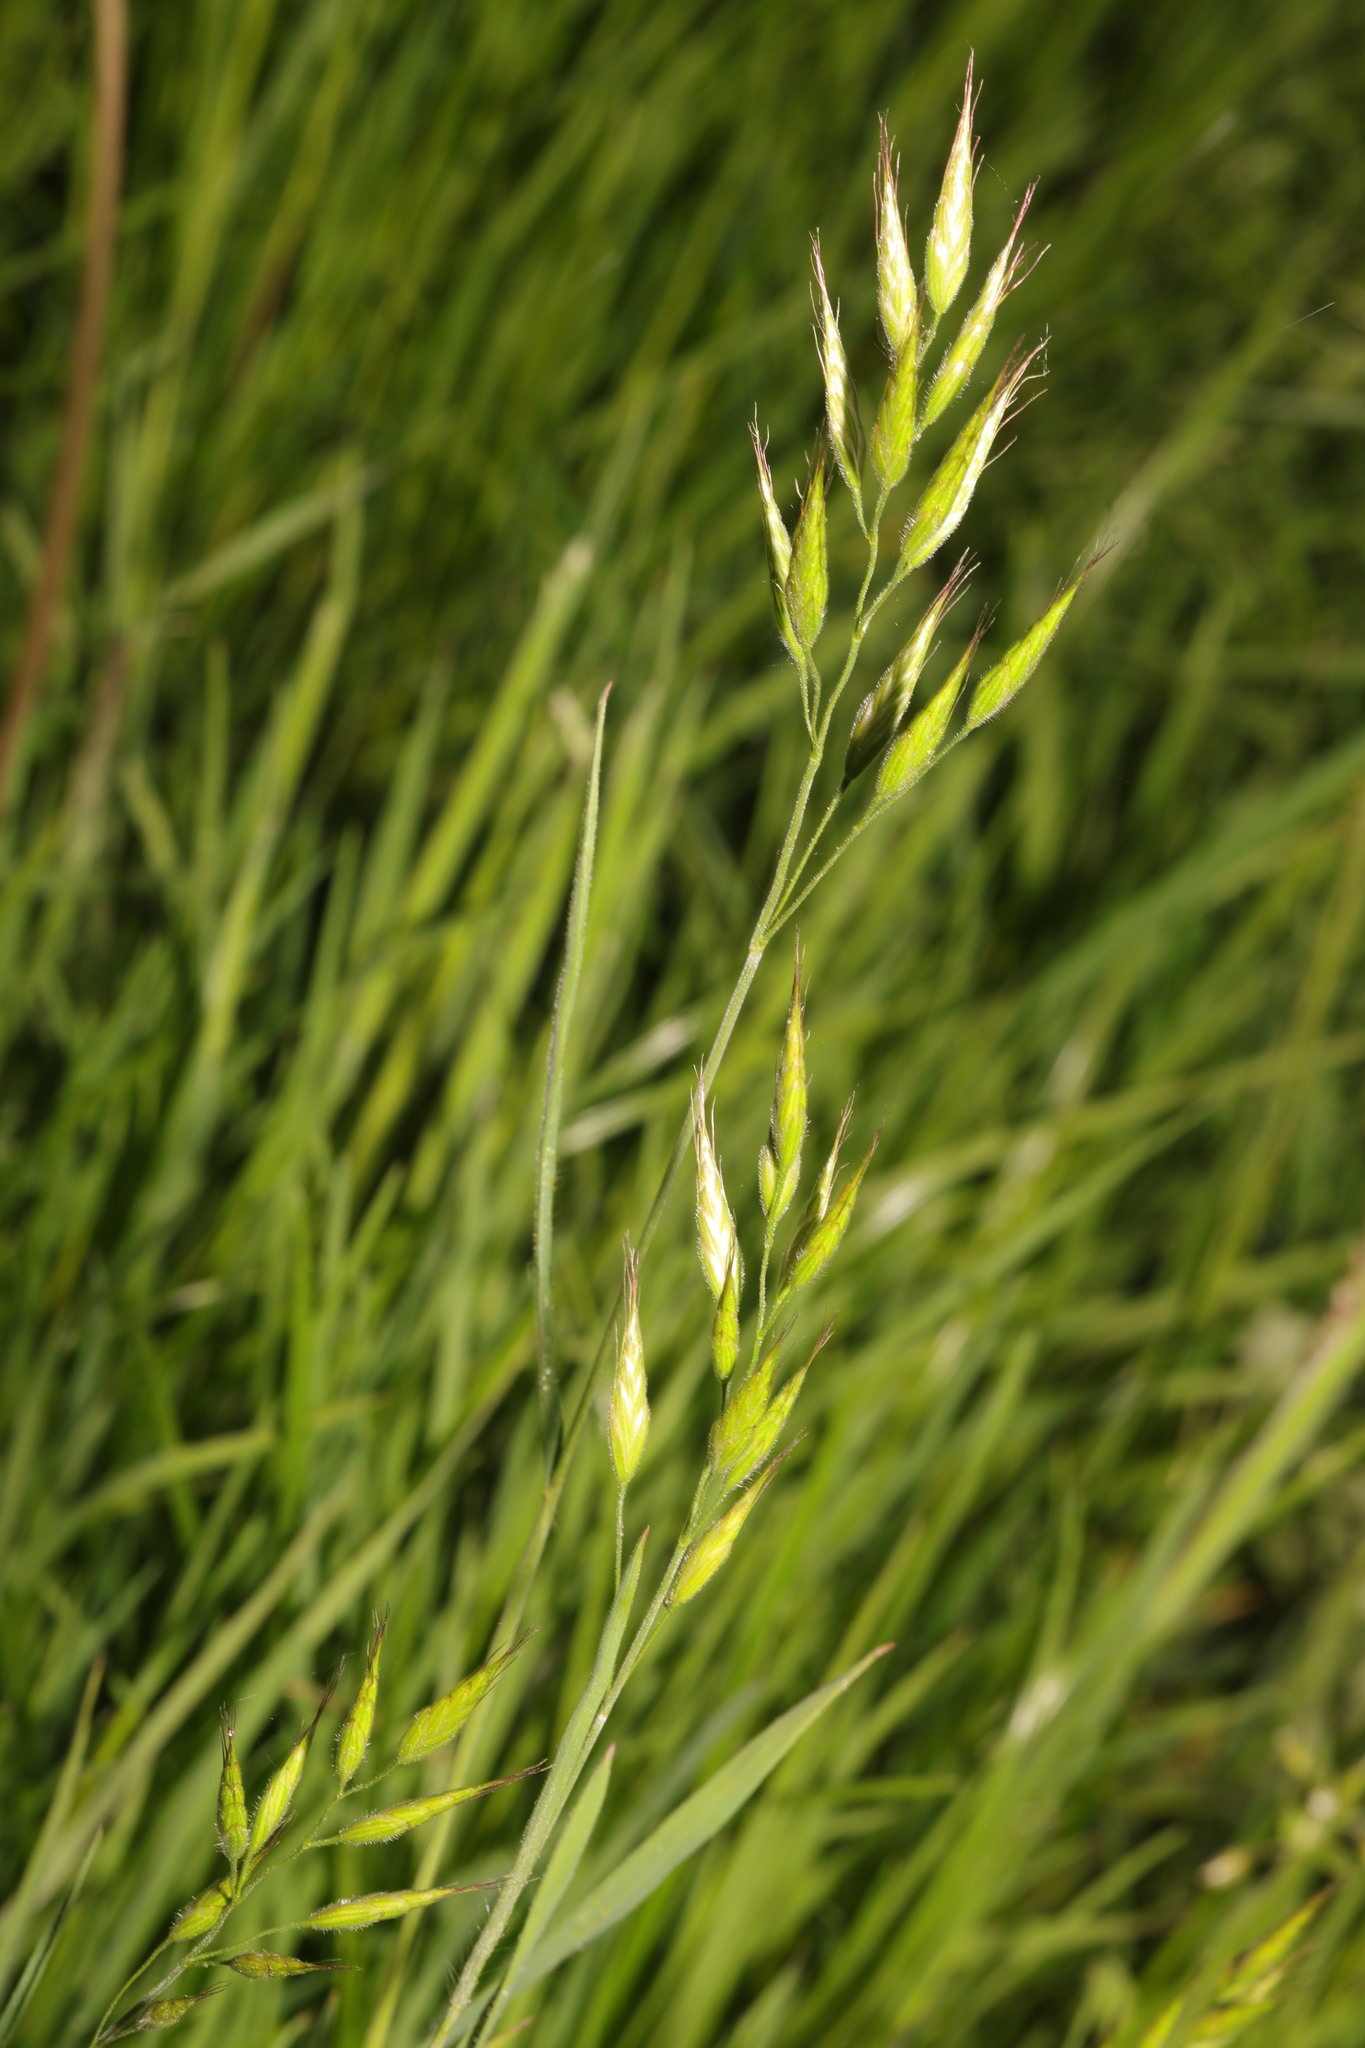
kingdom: Plantae
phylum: Tracheophyta
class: Liliopsida
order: Poales
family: Poaceae
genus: Bromus
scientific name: Bromus hordeaceus
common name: Soft brome
